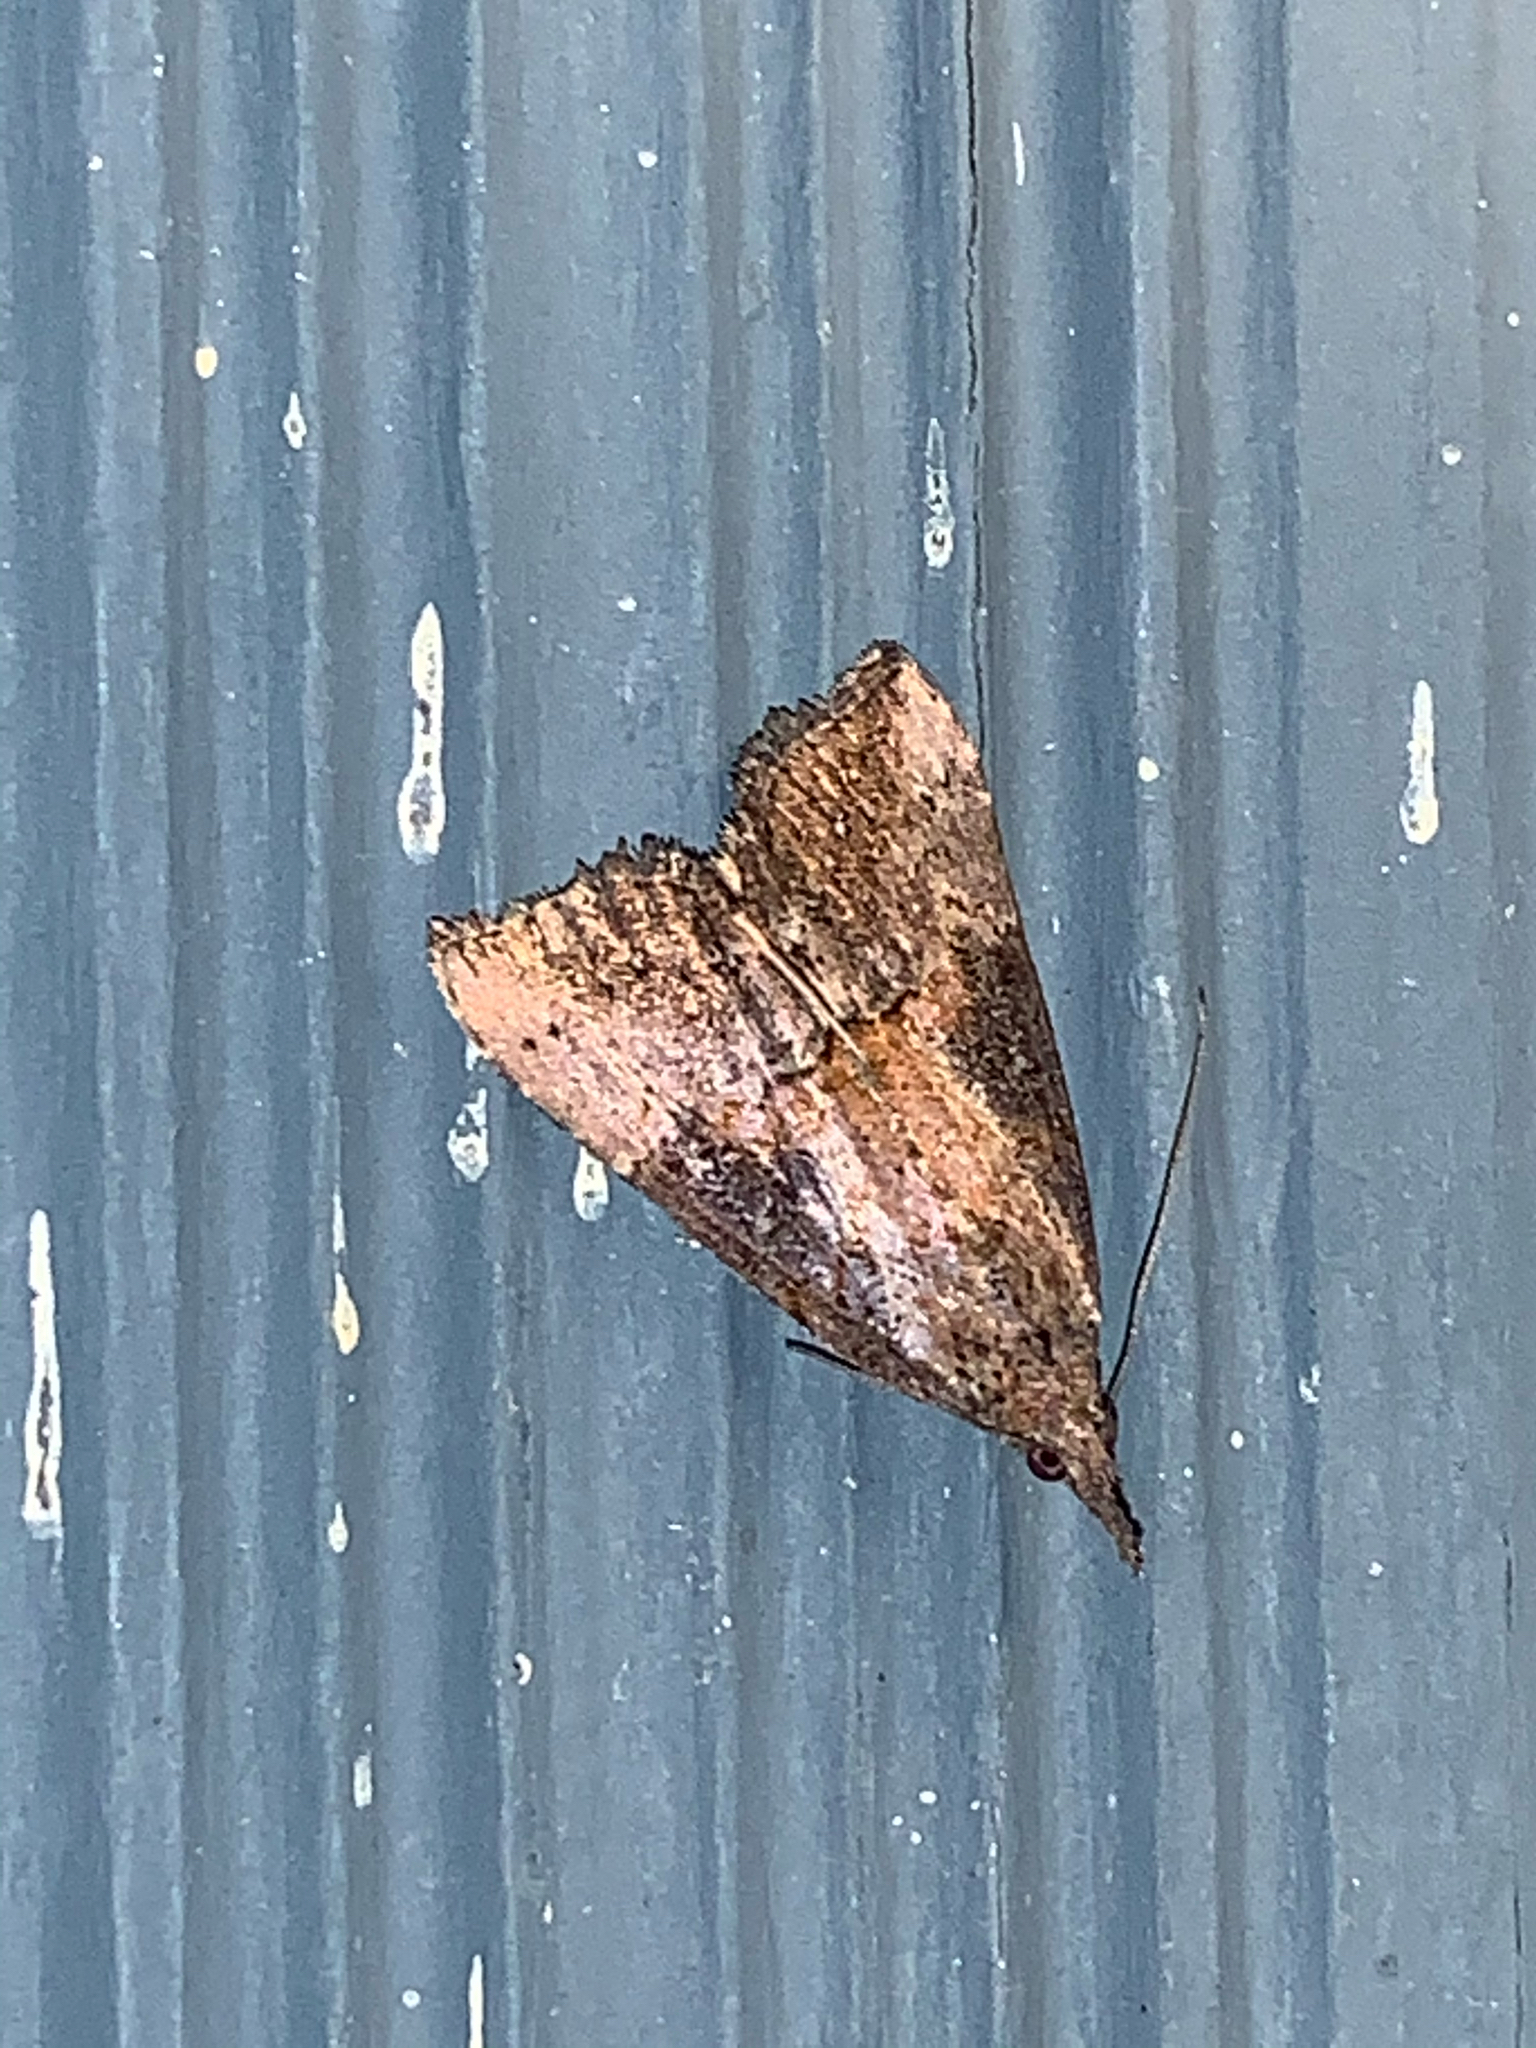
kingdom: Animalia
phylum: Arthropoda
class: Insecta
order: Lepidoptera
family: Erebidae
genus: Hypena
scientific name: Hypena scabra
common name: Green cloverworm
